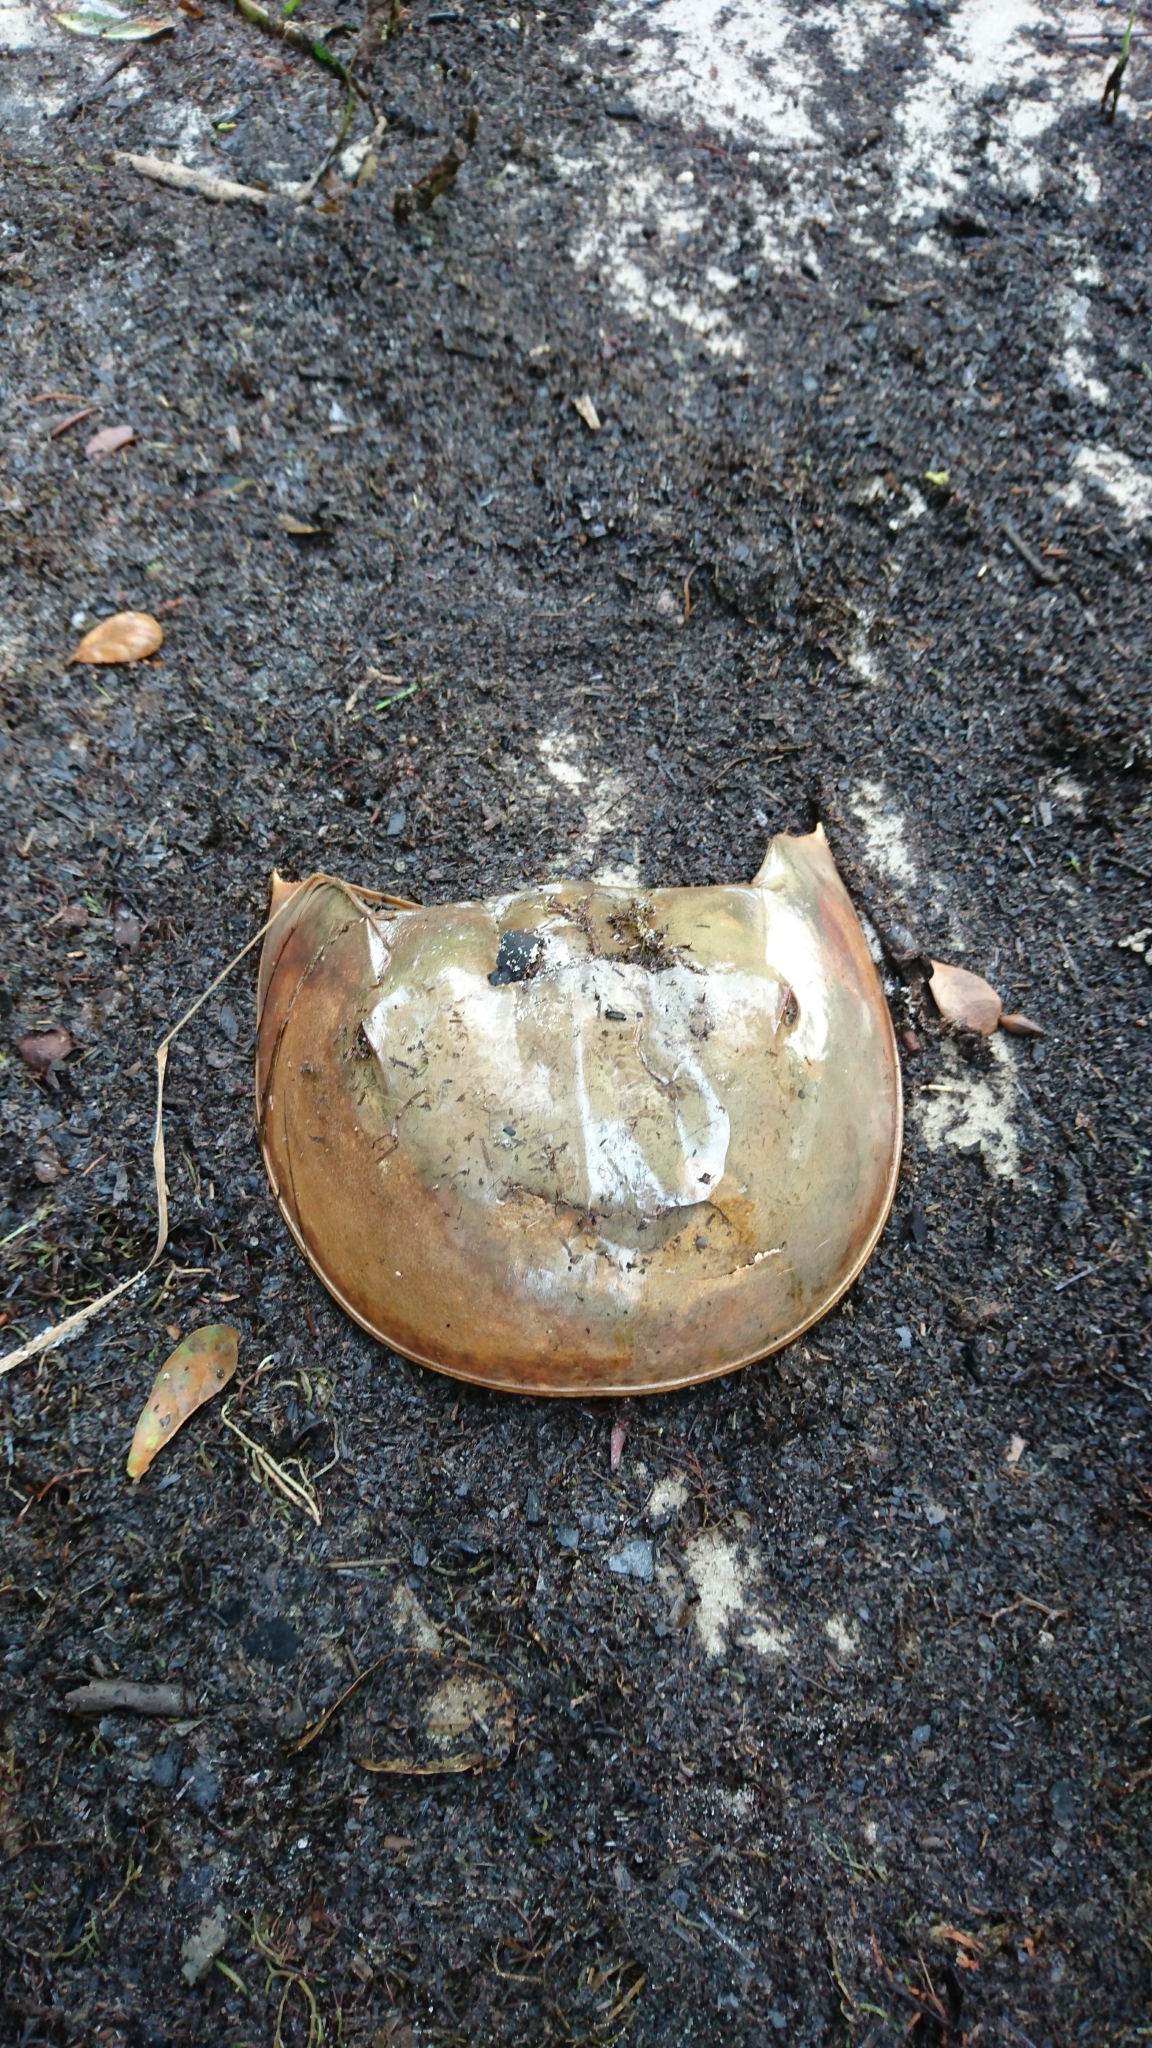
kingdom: Animalia
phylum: Arthropoda
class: Merostomata
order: Xiphosurida
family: Limulidae
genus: Limulus
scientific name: Limulus polyphemus
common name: Horseshoe crab
